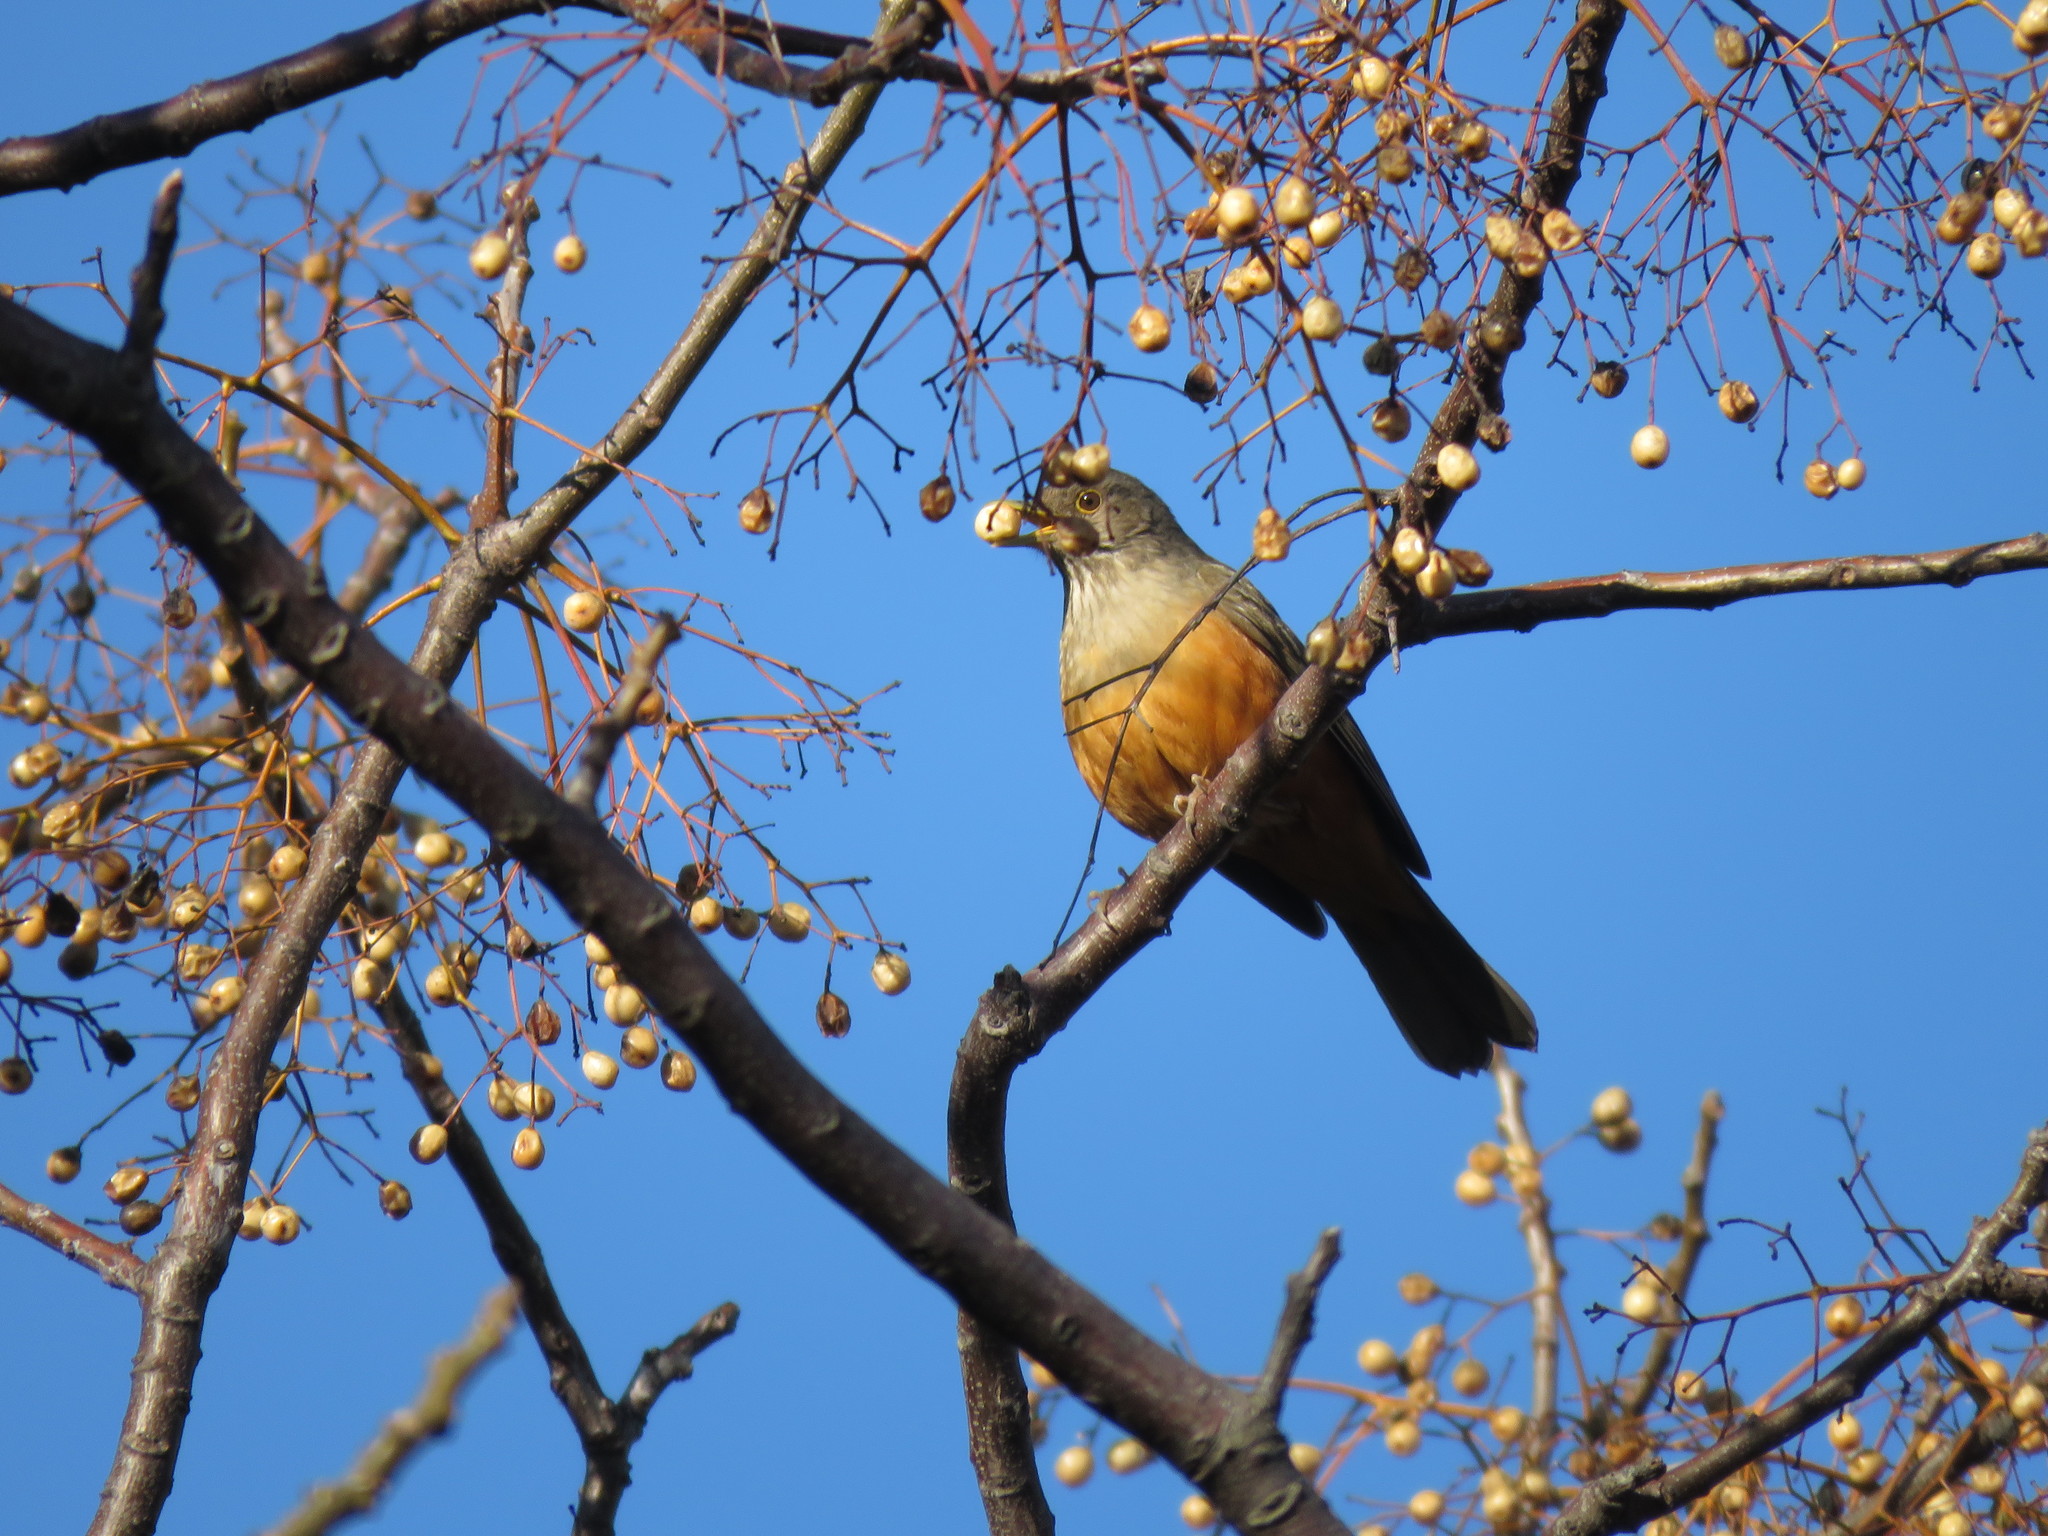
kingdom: Animalia
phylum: Chordata
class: Aves
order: Passeriformes
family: Turdidae
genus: Turdus
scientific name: Turdus rufiventris
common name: Rufous-bellied thrush
